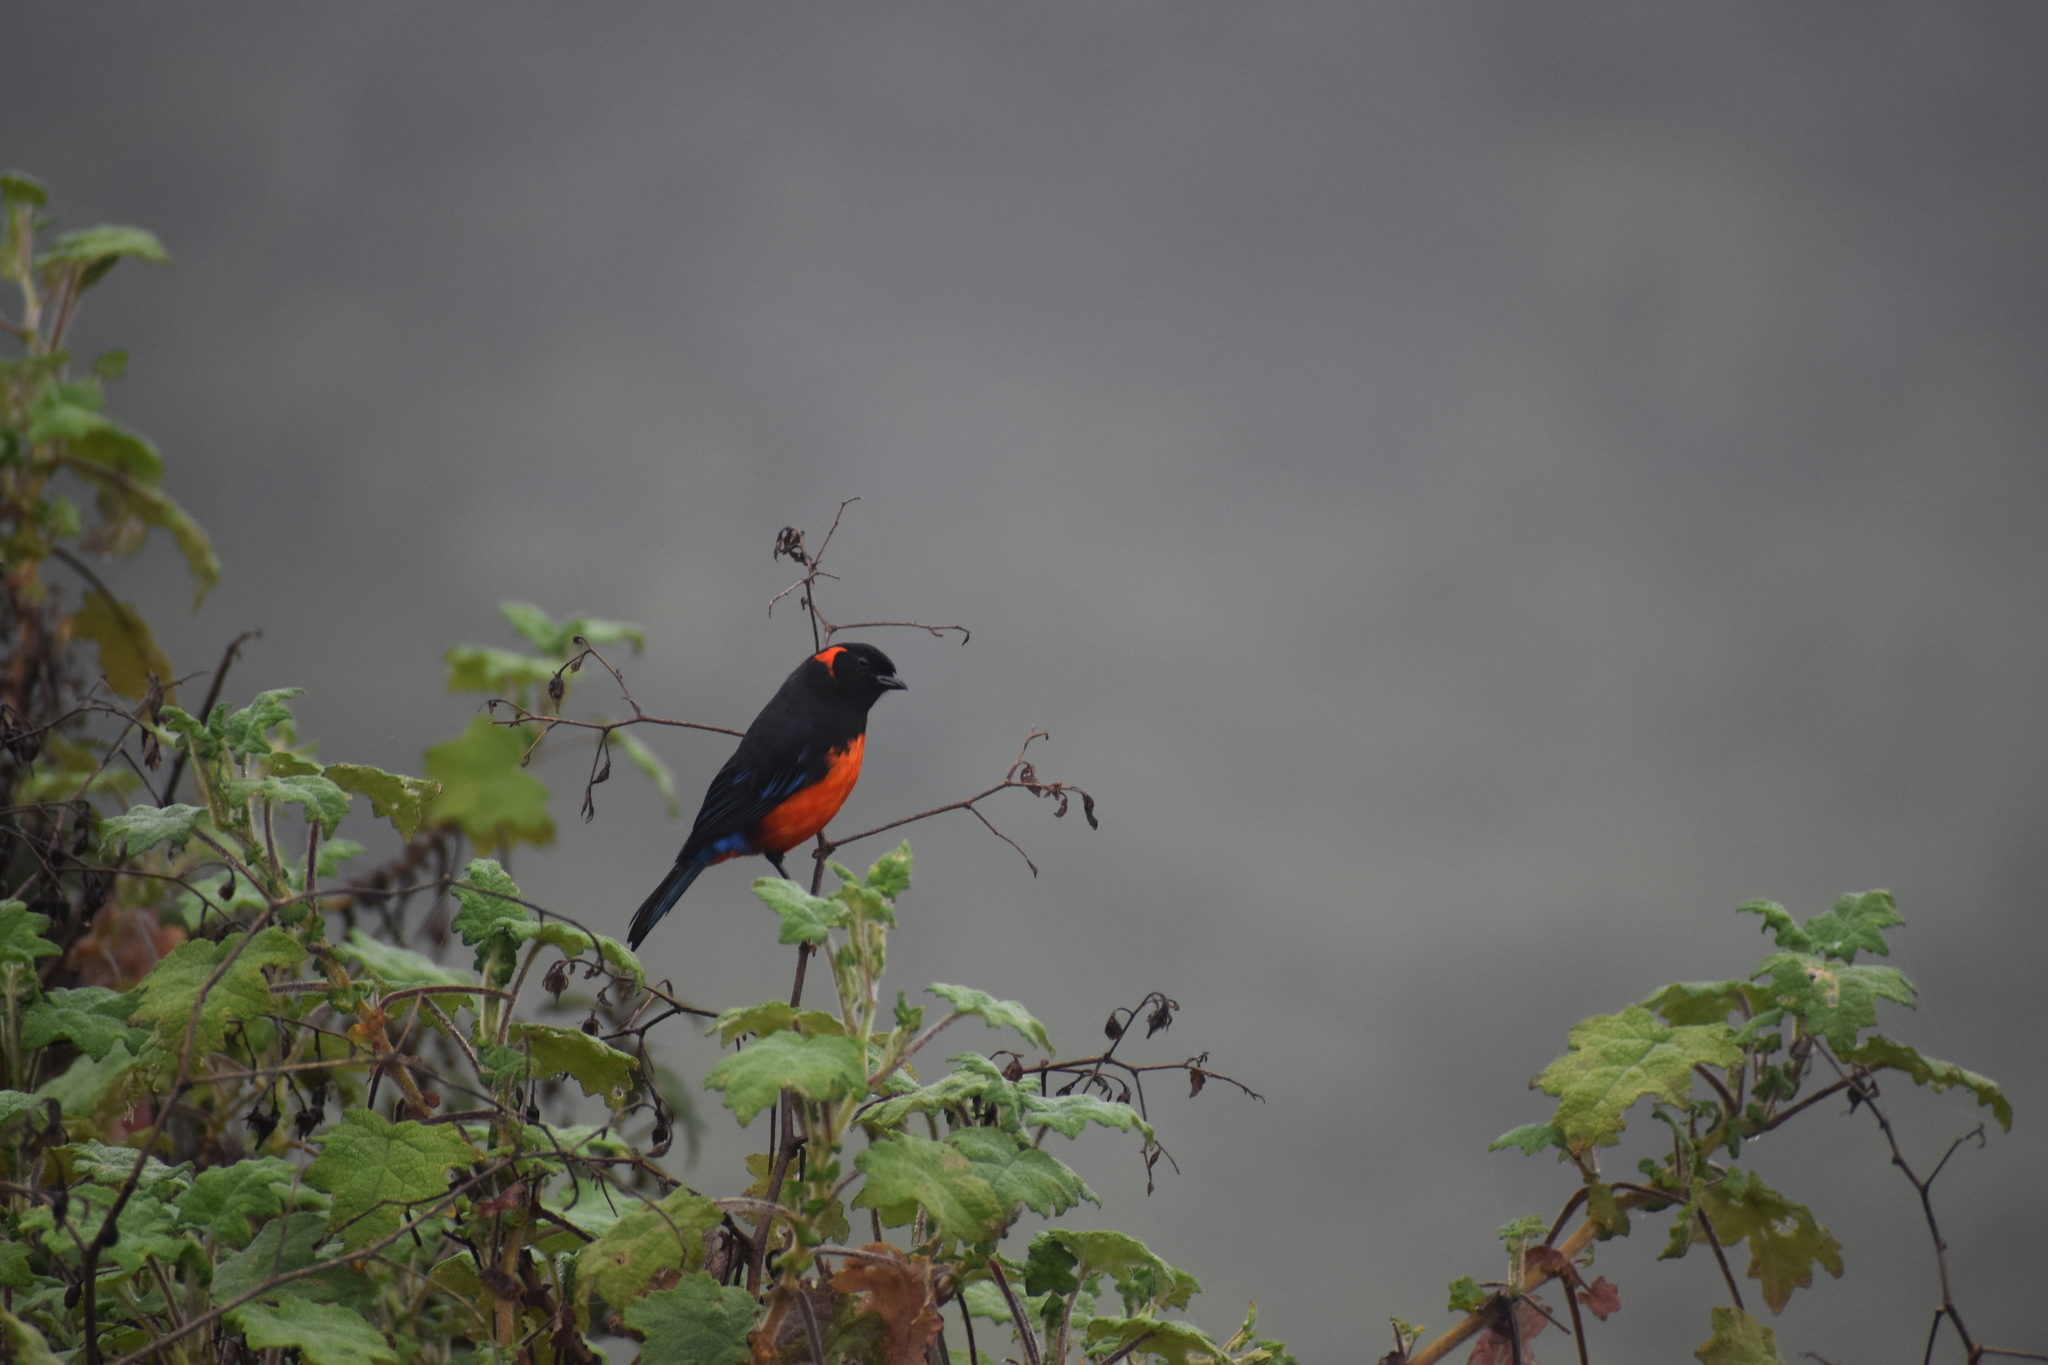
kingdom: Animalia
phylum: Chordata
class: Aves
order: Passeriformes
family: Thraupidae
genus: Anisognathus
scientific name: Anisognathus igniventris
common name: Scarlet-bellied mountain tanager
